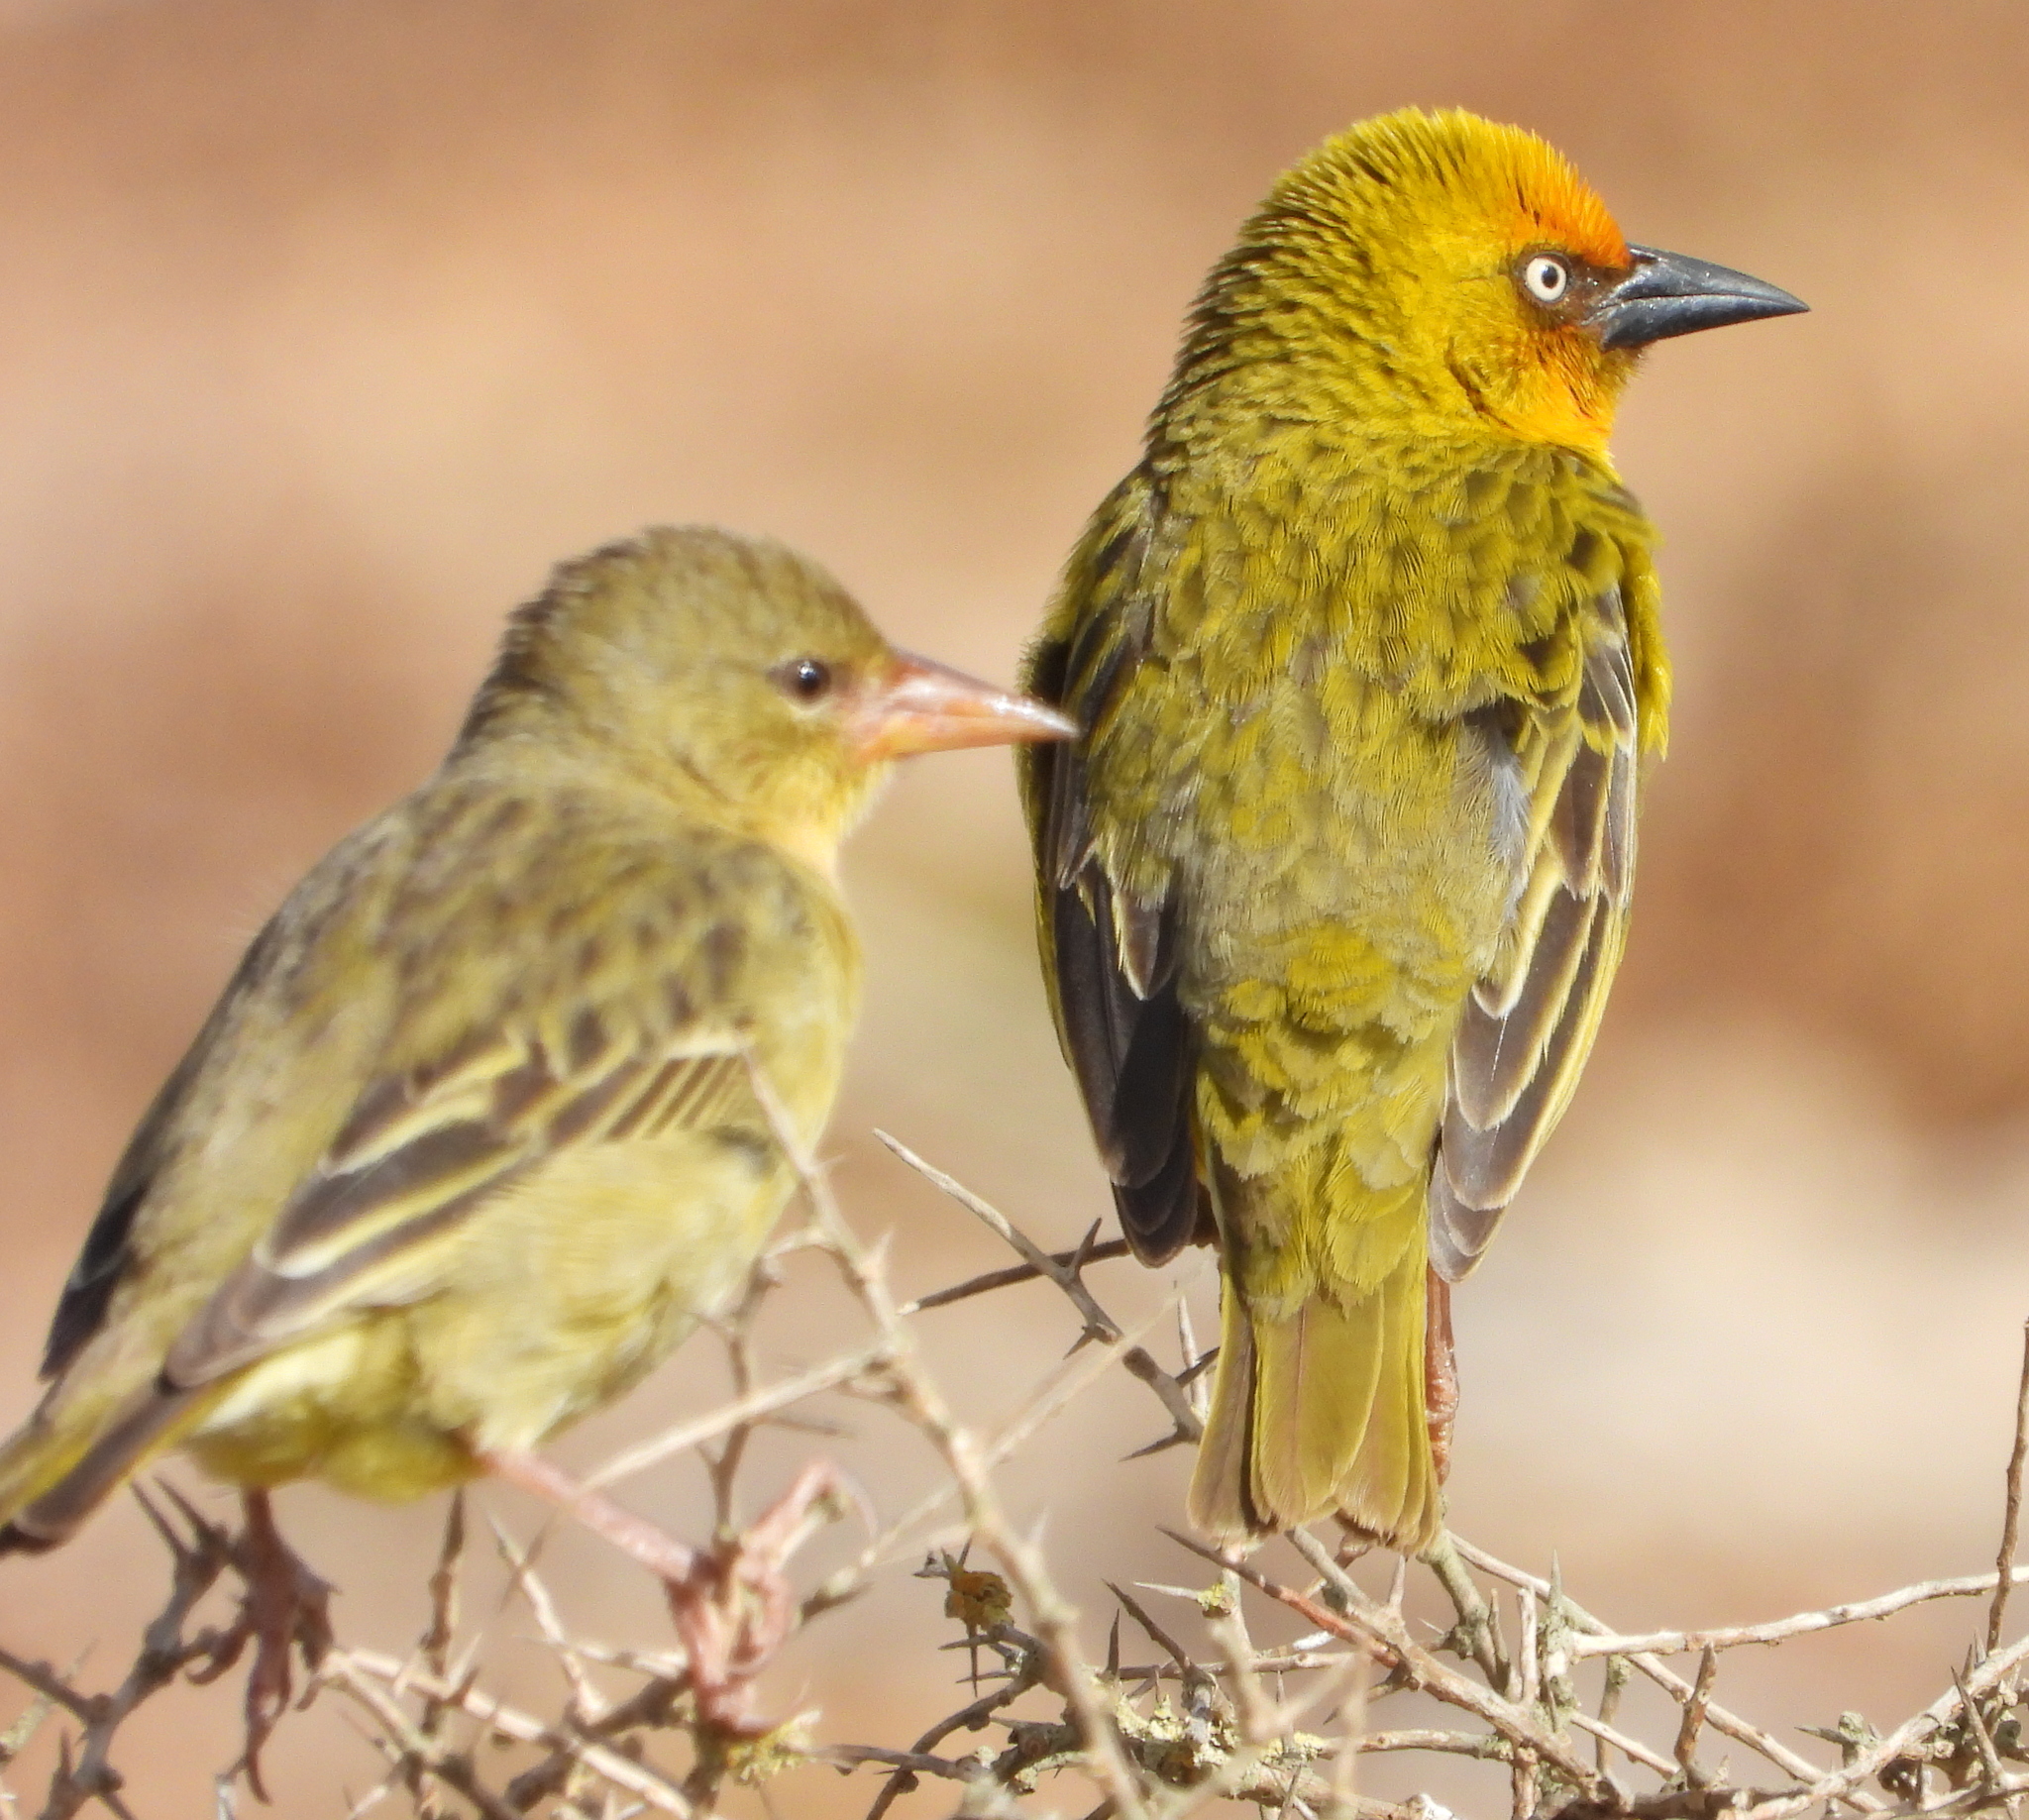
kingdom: Animalia
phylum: Chordata
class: Aves
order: Passeriformes
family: Ploceidae
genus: Ploceus
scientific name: Ploceus capensis
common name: Cape weaver
